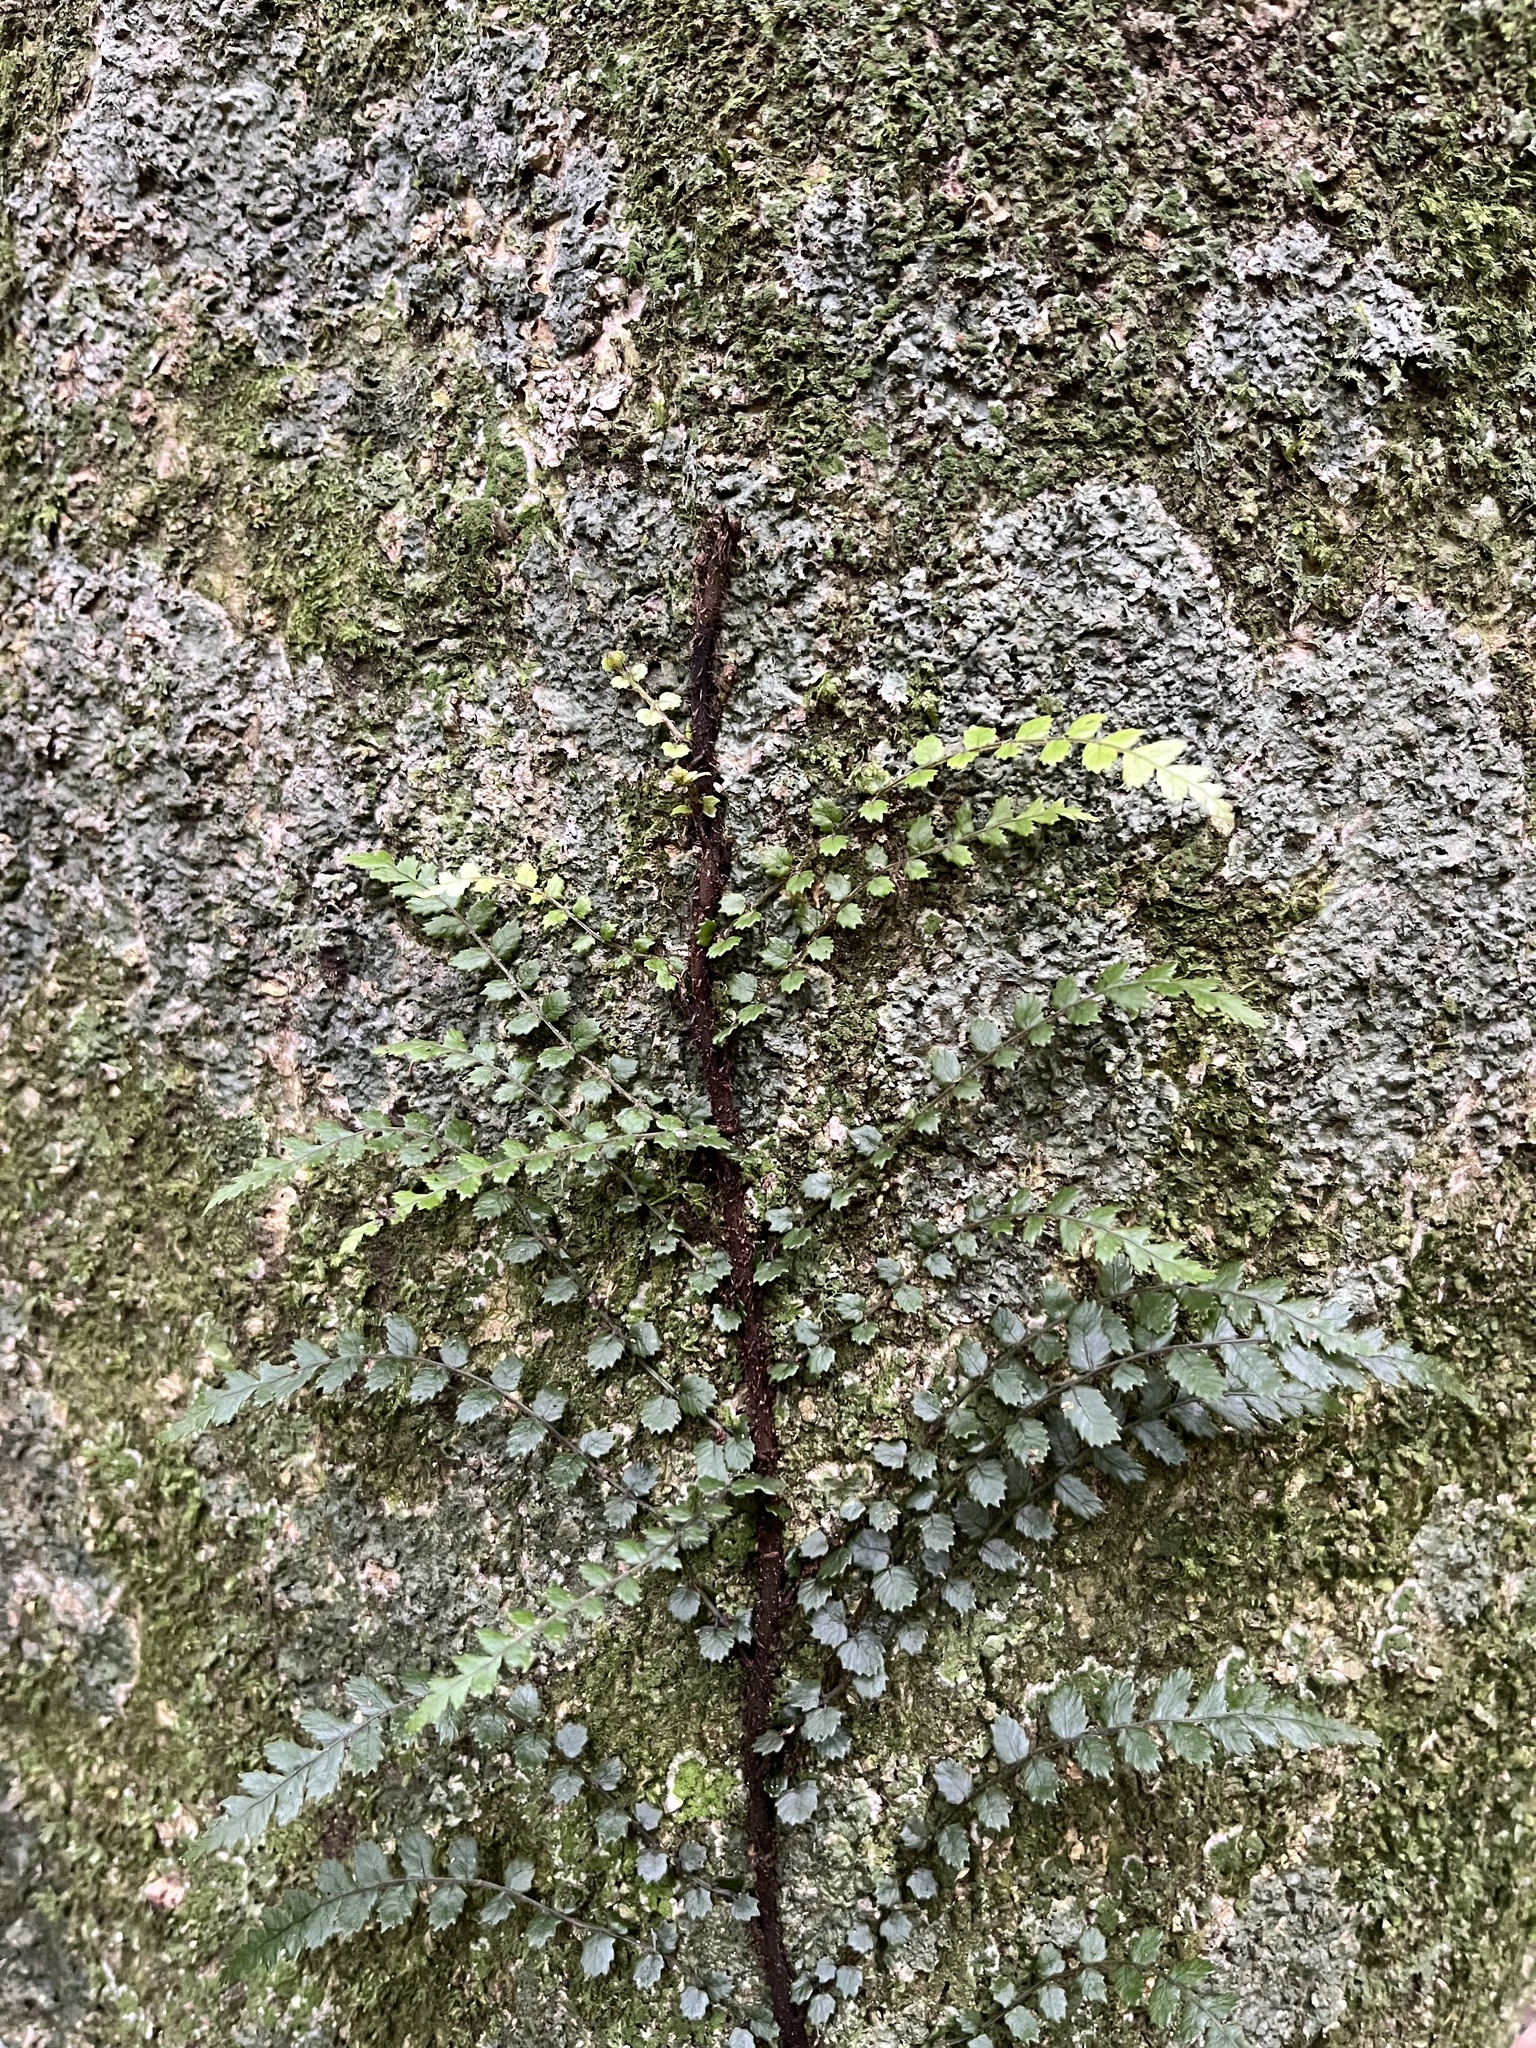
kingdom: Plantae
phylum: Tracheophyta
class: Polypodiopsida
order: Polypodiales
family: Blechnaceae
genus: Icarus
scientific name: Icarus filiformis
